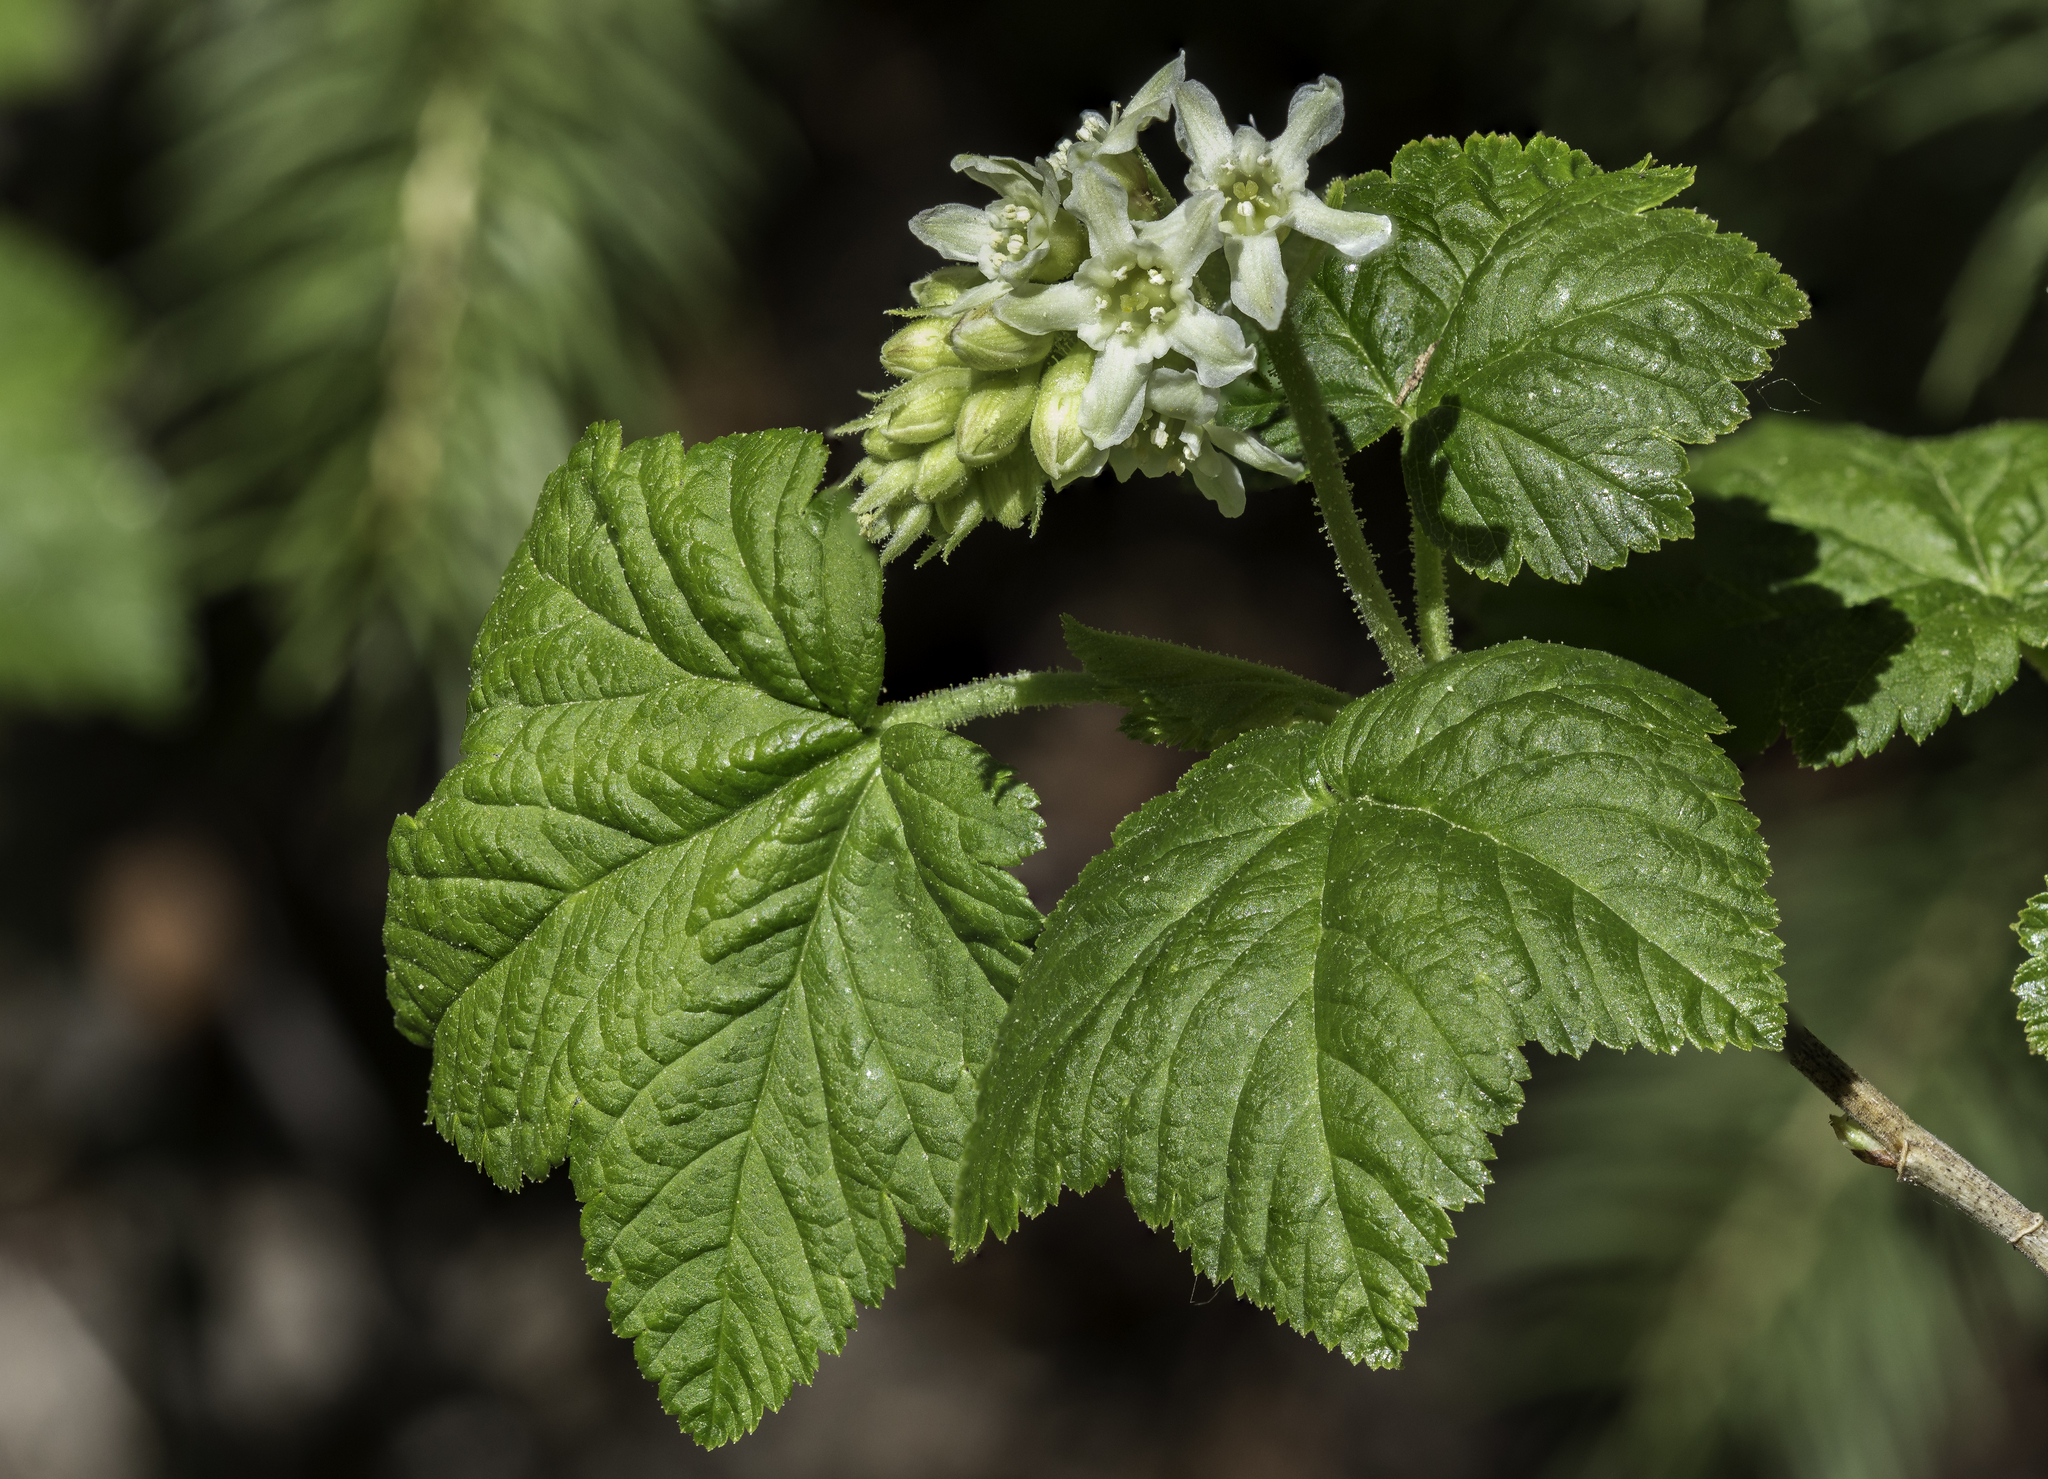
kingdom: Plantae
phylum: Tracheophyta
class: Magnoliopsida
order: Saxifragales
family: Grossulariaceae
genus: Ribes
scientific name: Ribes wolfii
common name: Rothrock currant
